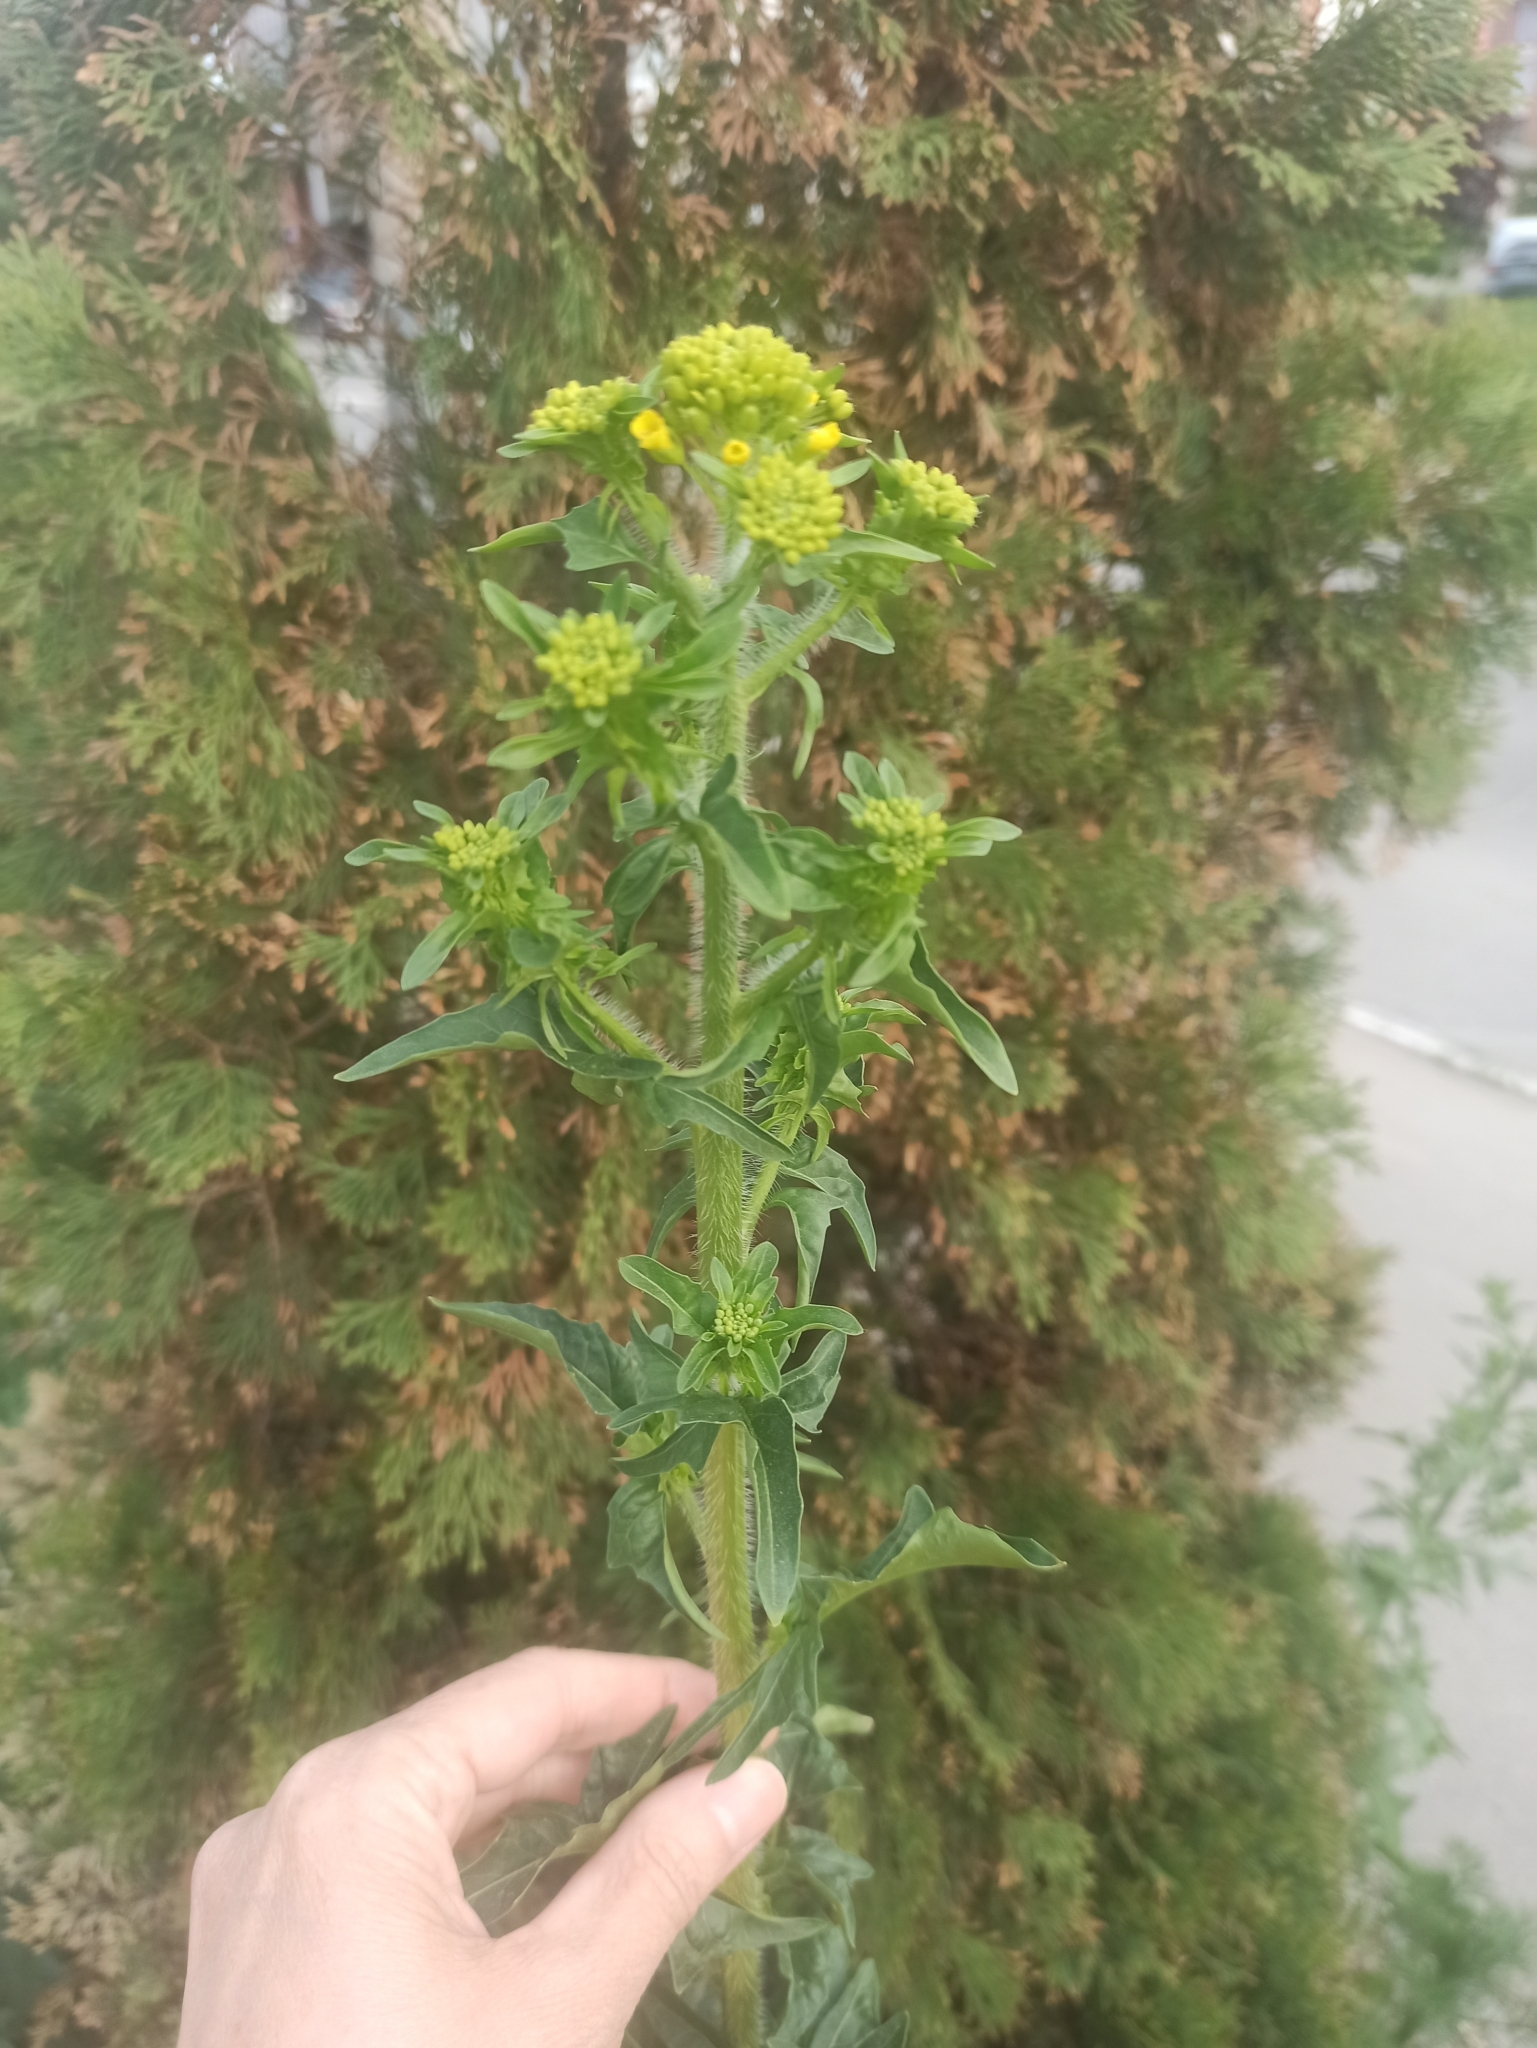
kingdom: Plantae
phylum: Tracheophyta
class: Magnoliopsida
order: Brassicales
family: Brassicaceae
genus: Sisymbrium
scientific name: Sisymbrium loeselii
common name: False london-rocket
